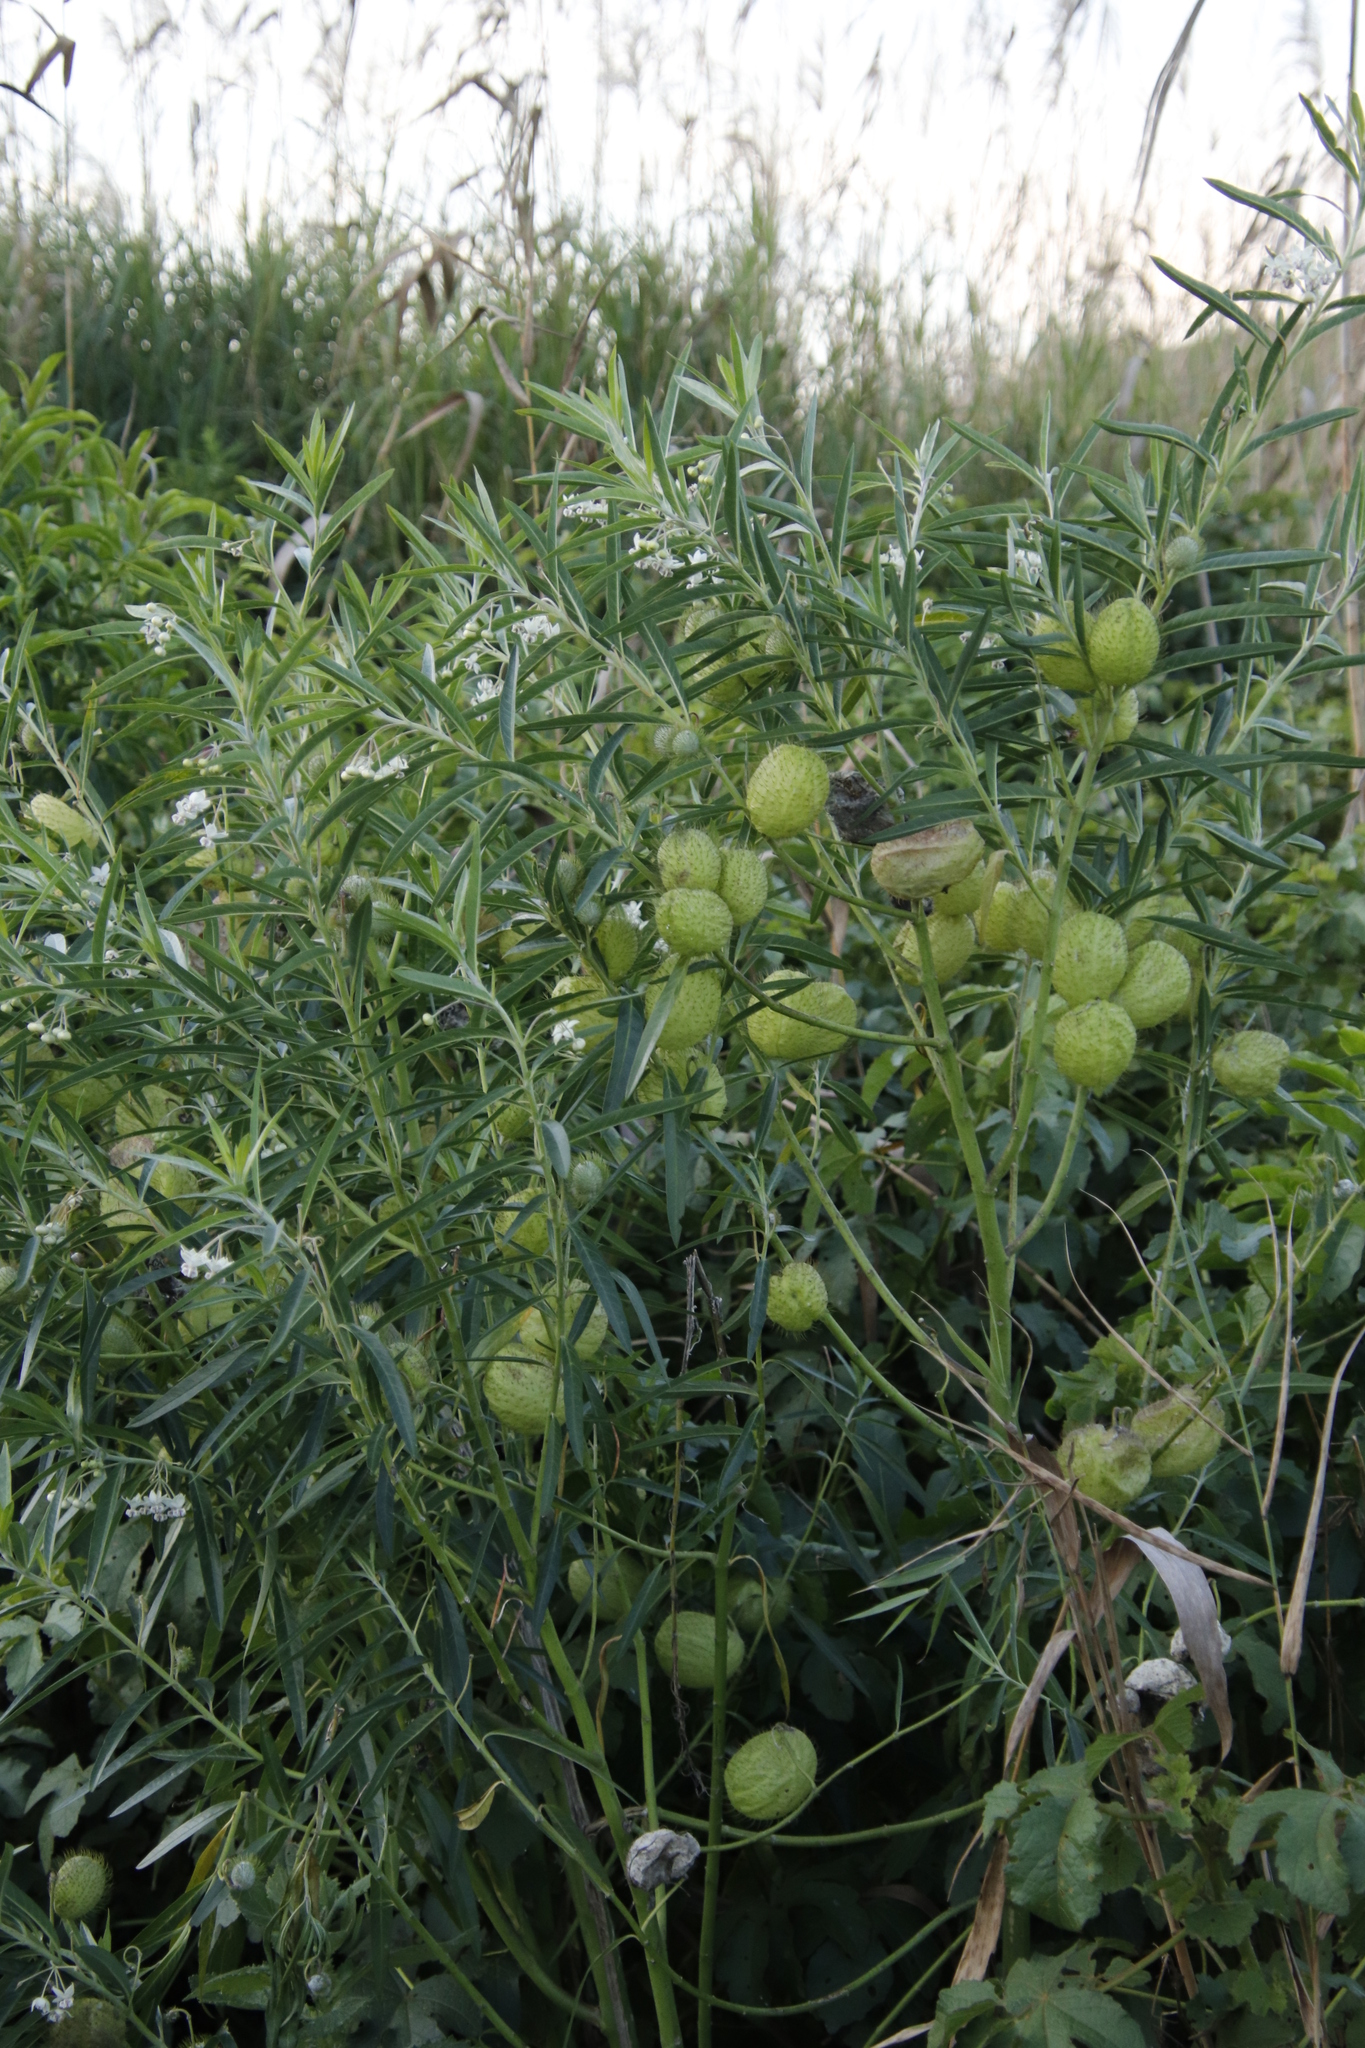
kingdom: Plantae
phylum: Tracheophyta
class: Magnoliopsida
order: Gentianales
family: Apocynaceae
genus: Gomphocarpus
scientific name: Gomphocarpus physocarpus
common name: Balloon cotton bush
